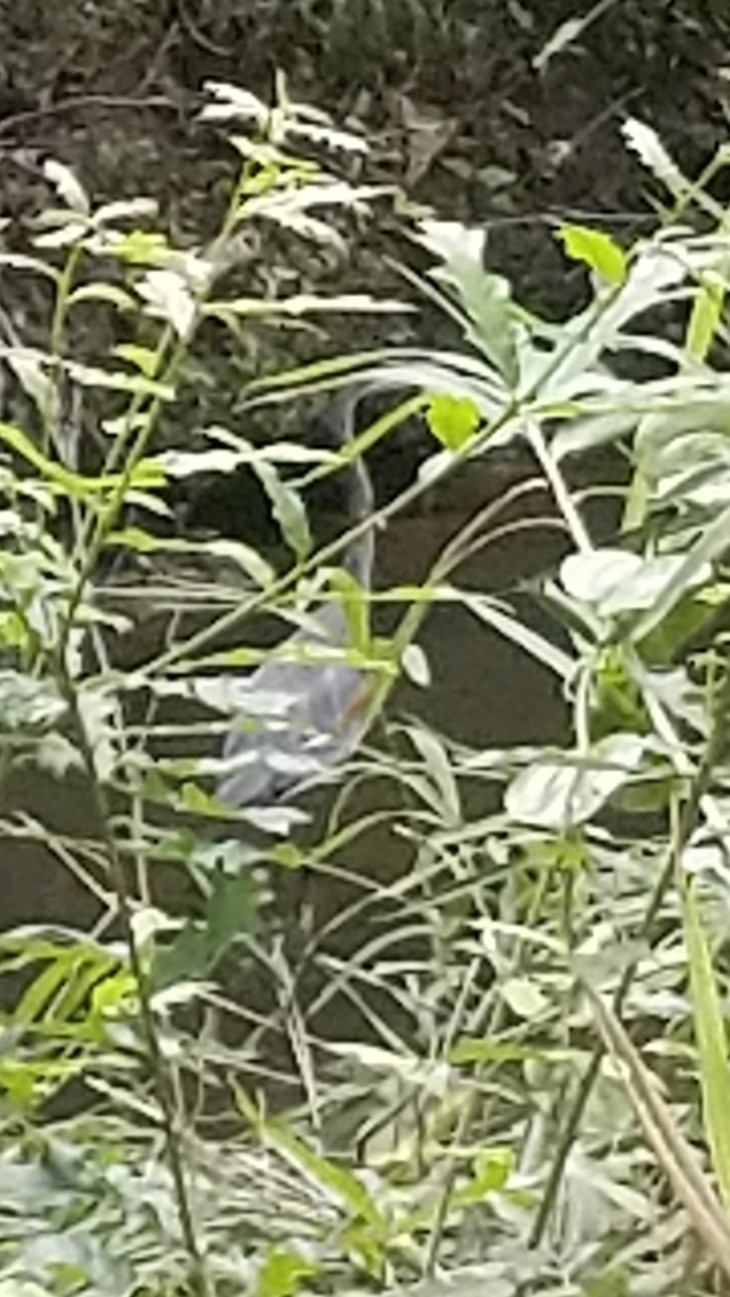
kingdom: Animalia
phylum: Chordata
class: Aves
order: Pelecaniformes
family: Ardeidae
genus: Ardea
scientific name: Ardea herodias
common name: Great blue heron
